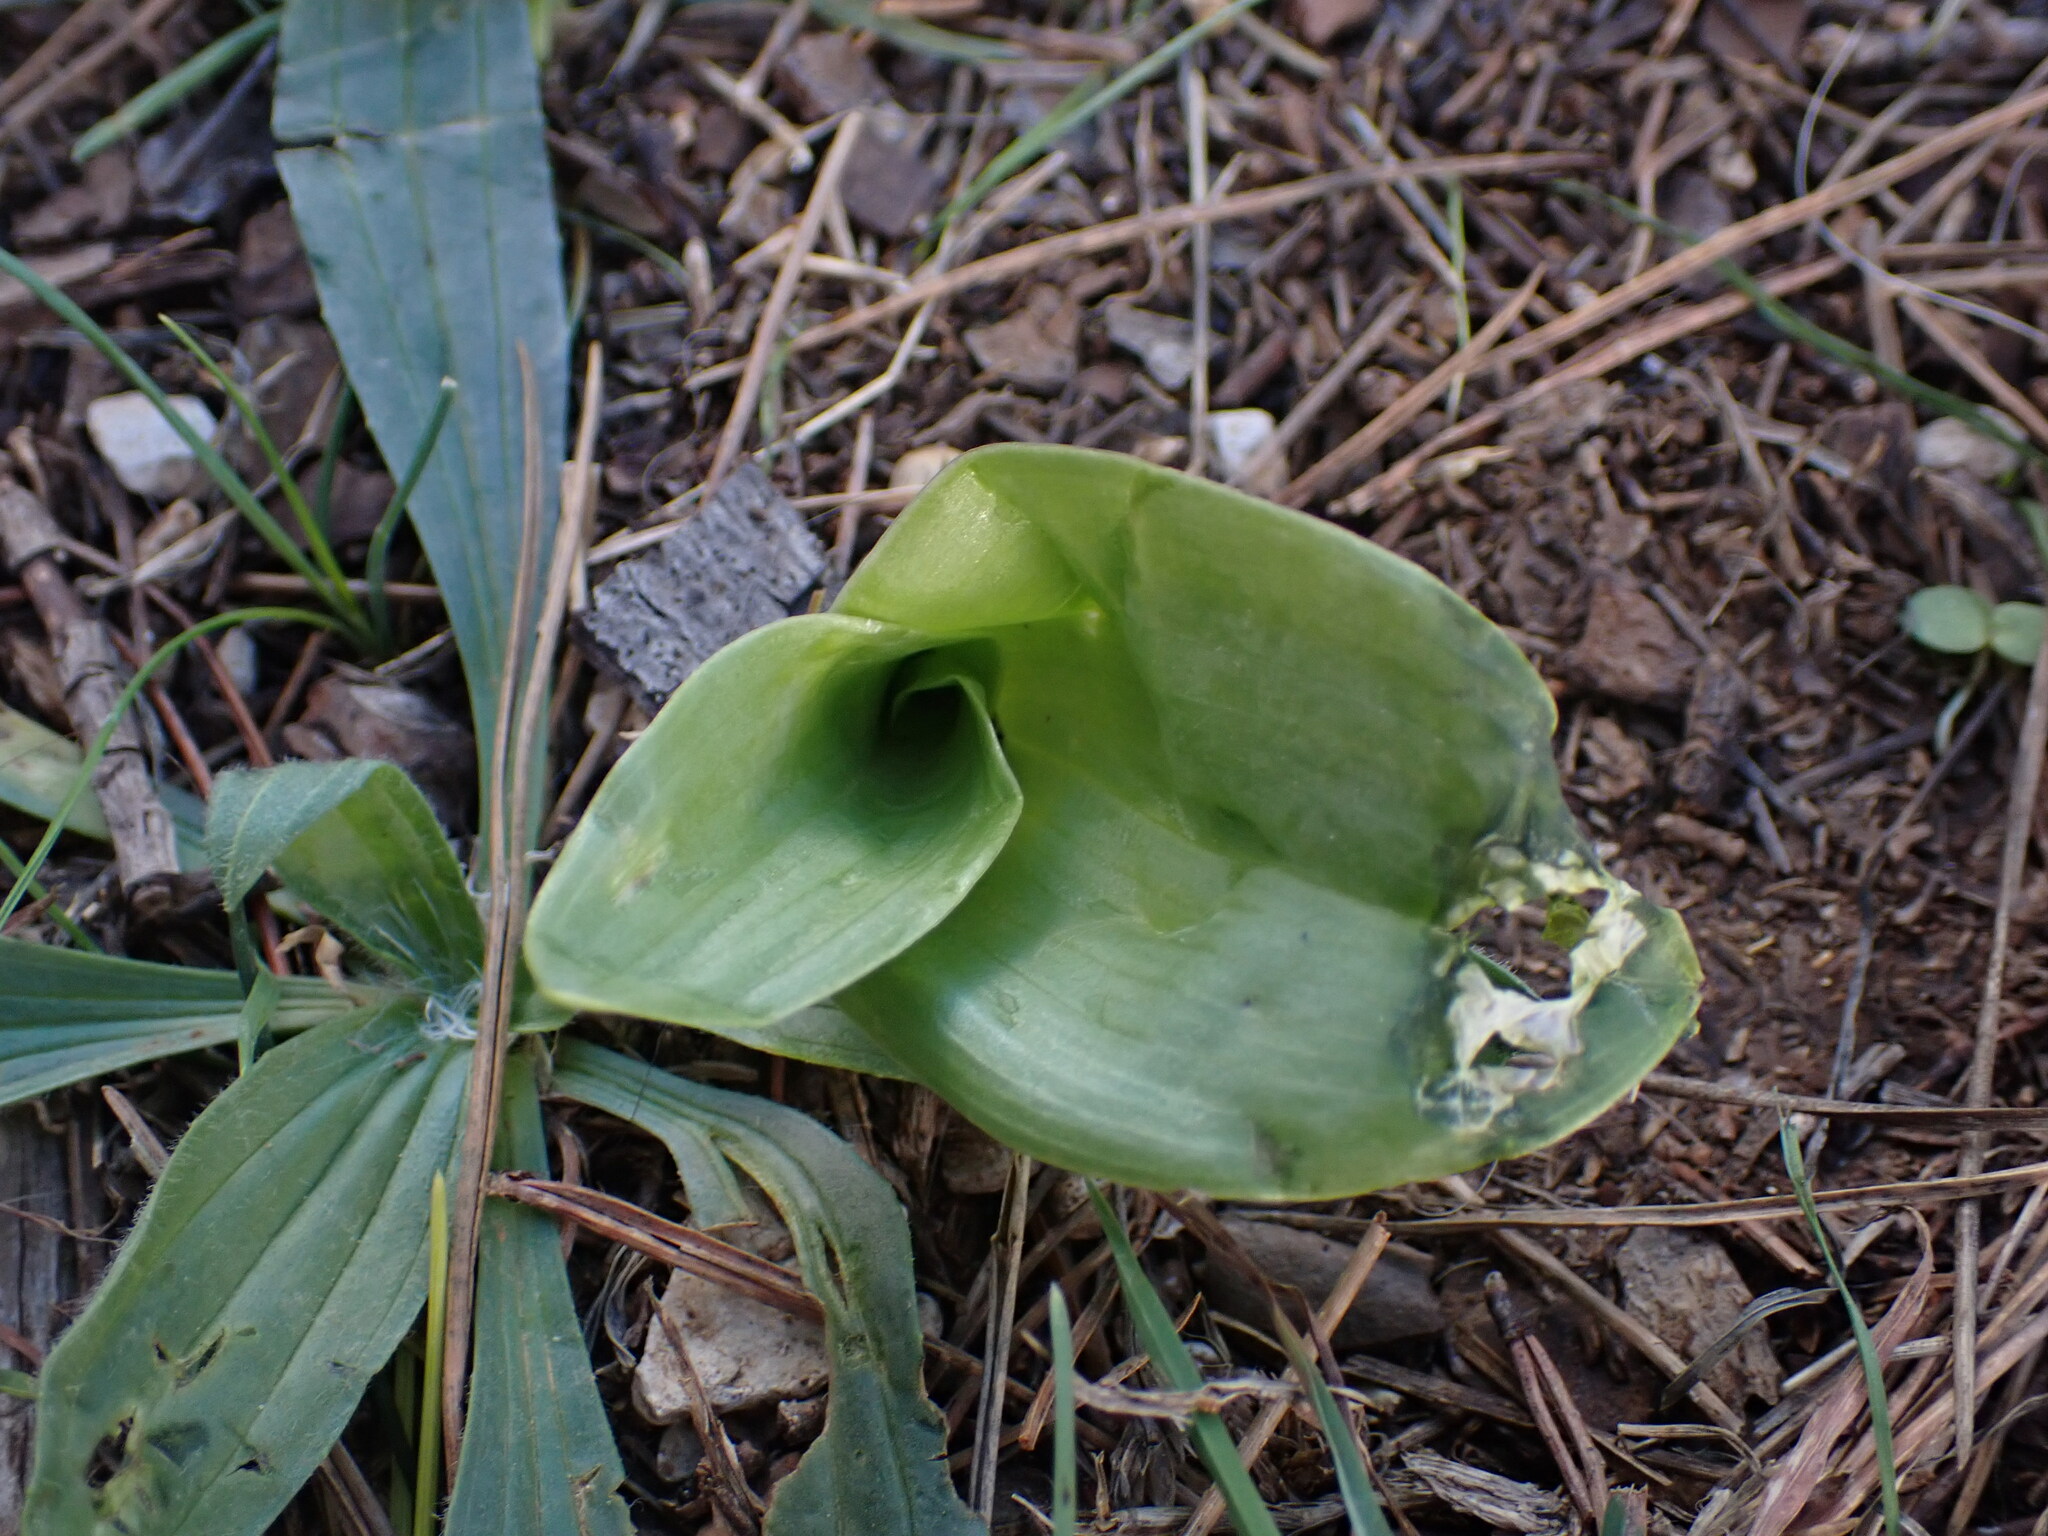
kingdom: Plantae
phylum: Tracheophyta
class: Liliopsida
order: Asparagales
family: Orchidaceae
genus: Himantoglossum
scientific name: Himantoglossum robertianum
